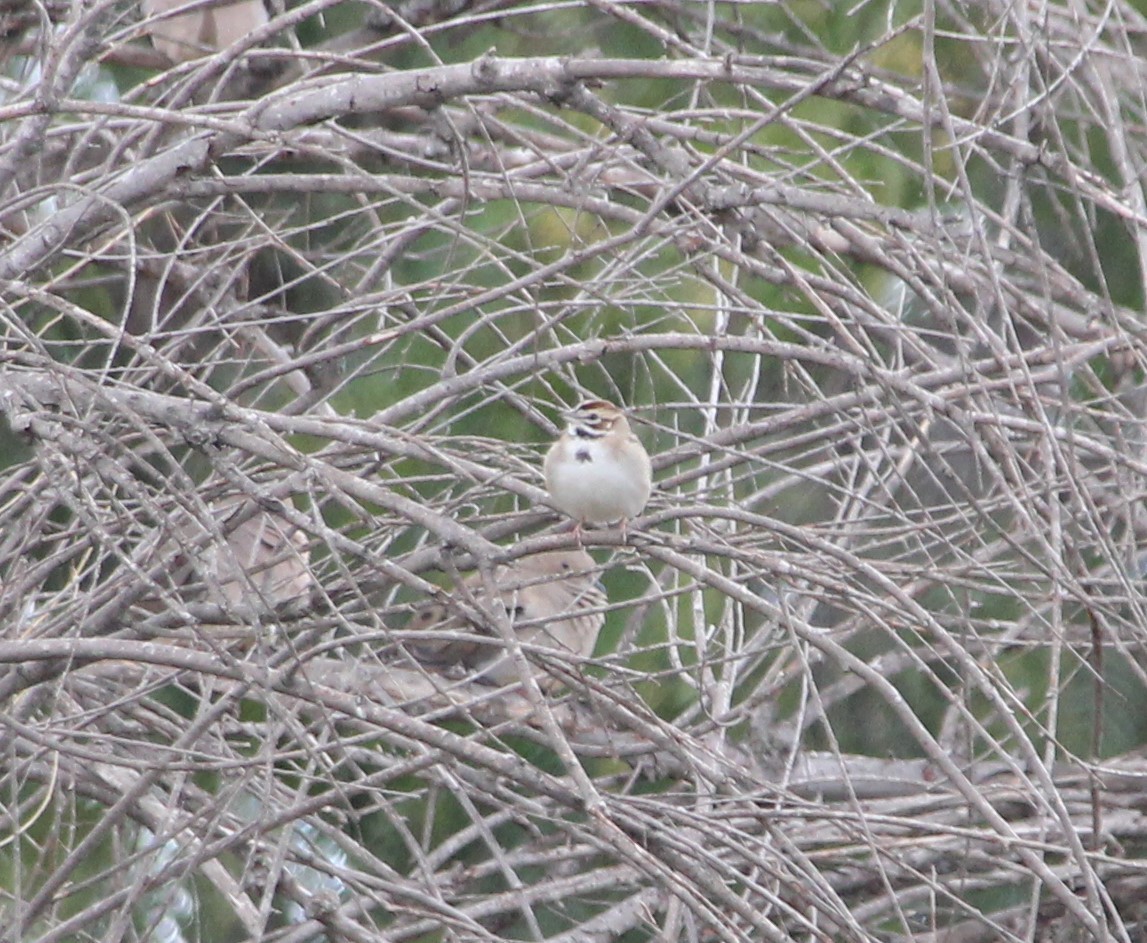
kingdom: Animalia
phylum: Chordata
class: Aves
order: Passeriformes
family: Passerellidae
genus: Chondestes
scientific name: Chondestes grammacus
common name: Lark sparrow
